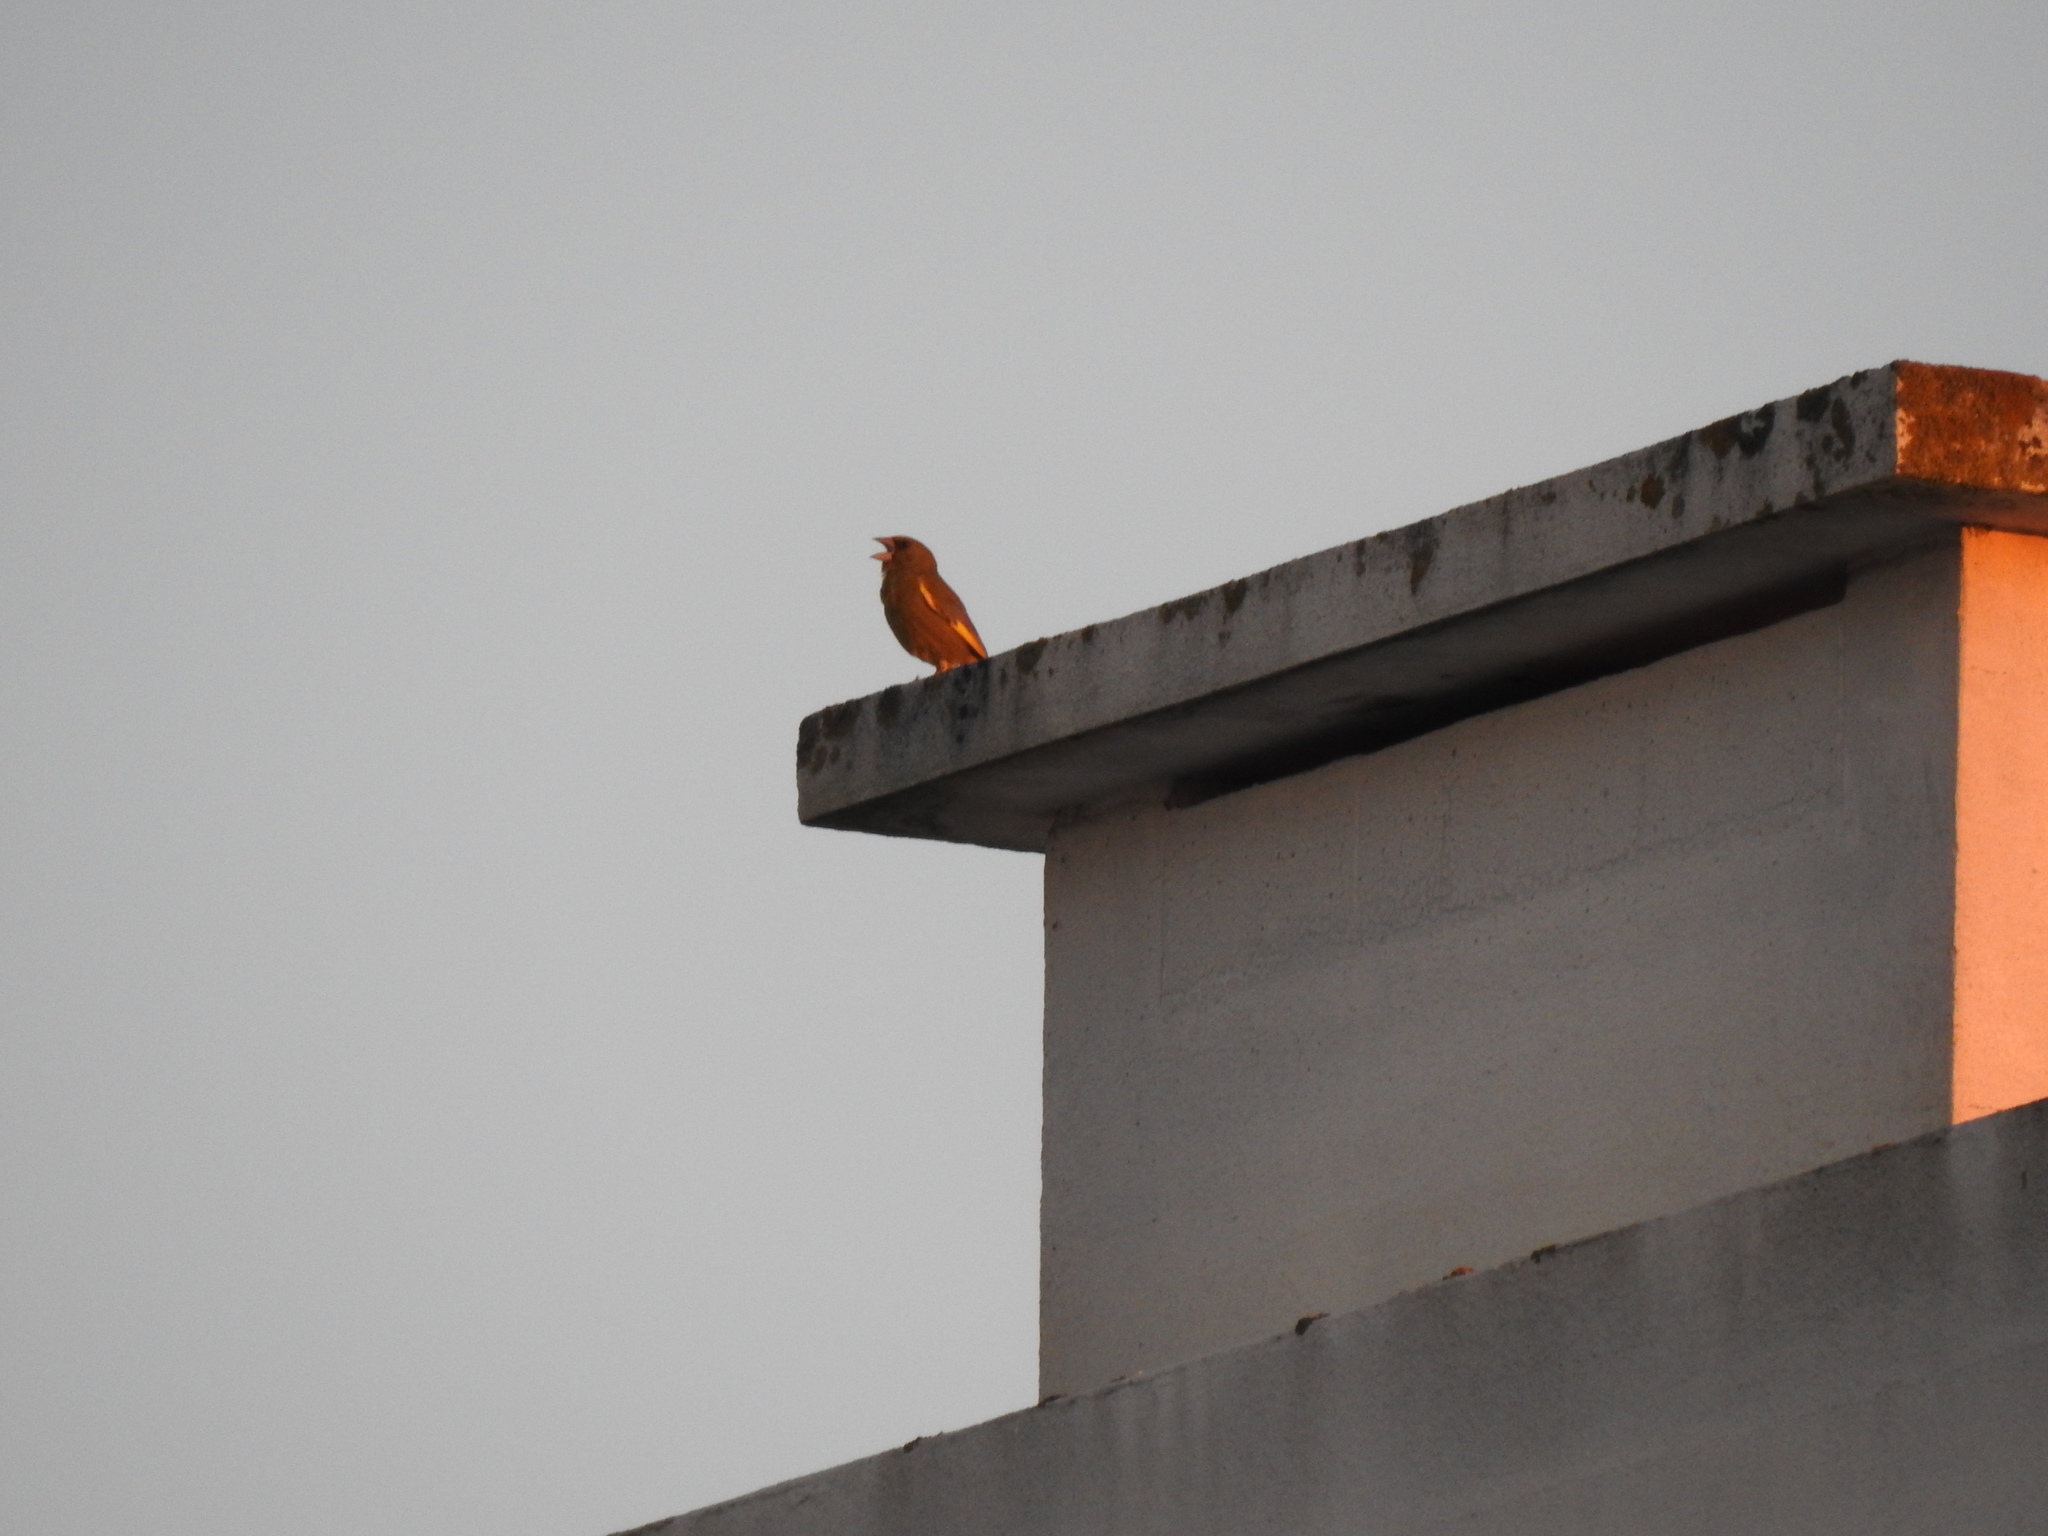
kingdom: Plantae
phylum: Tracheophyta
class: Liliopsida
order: Poales
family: Poaceae
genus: Chloris
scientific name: Chloris chloris
